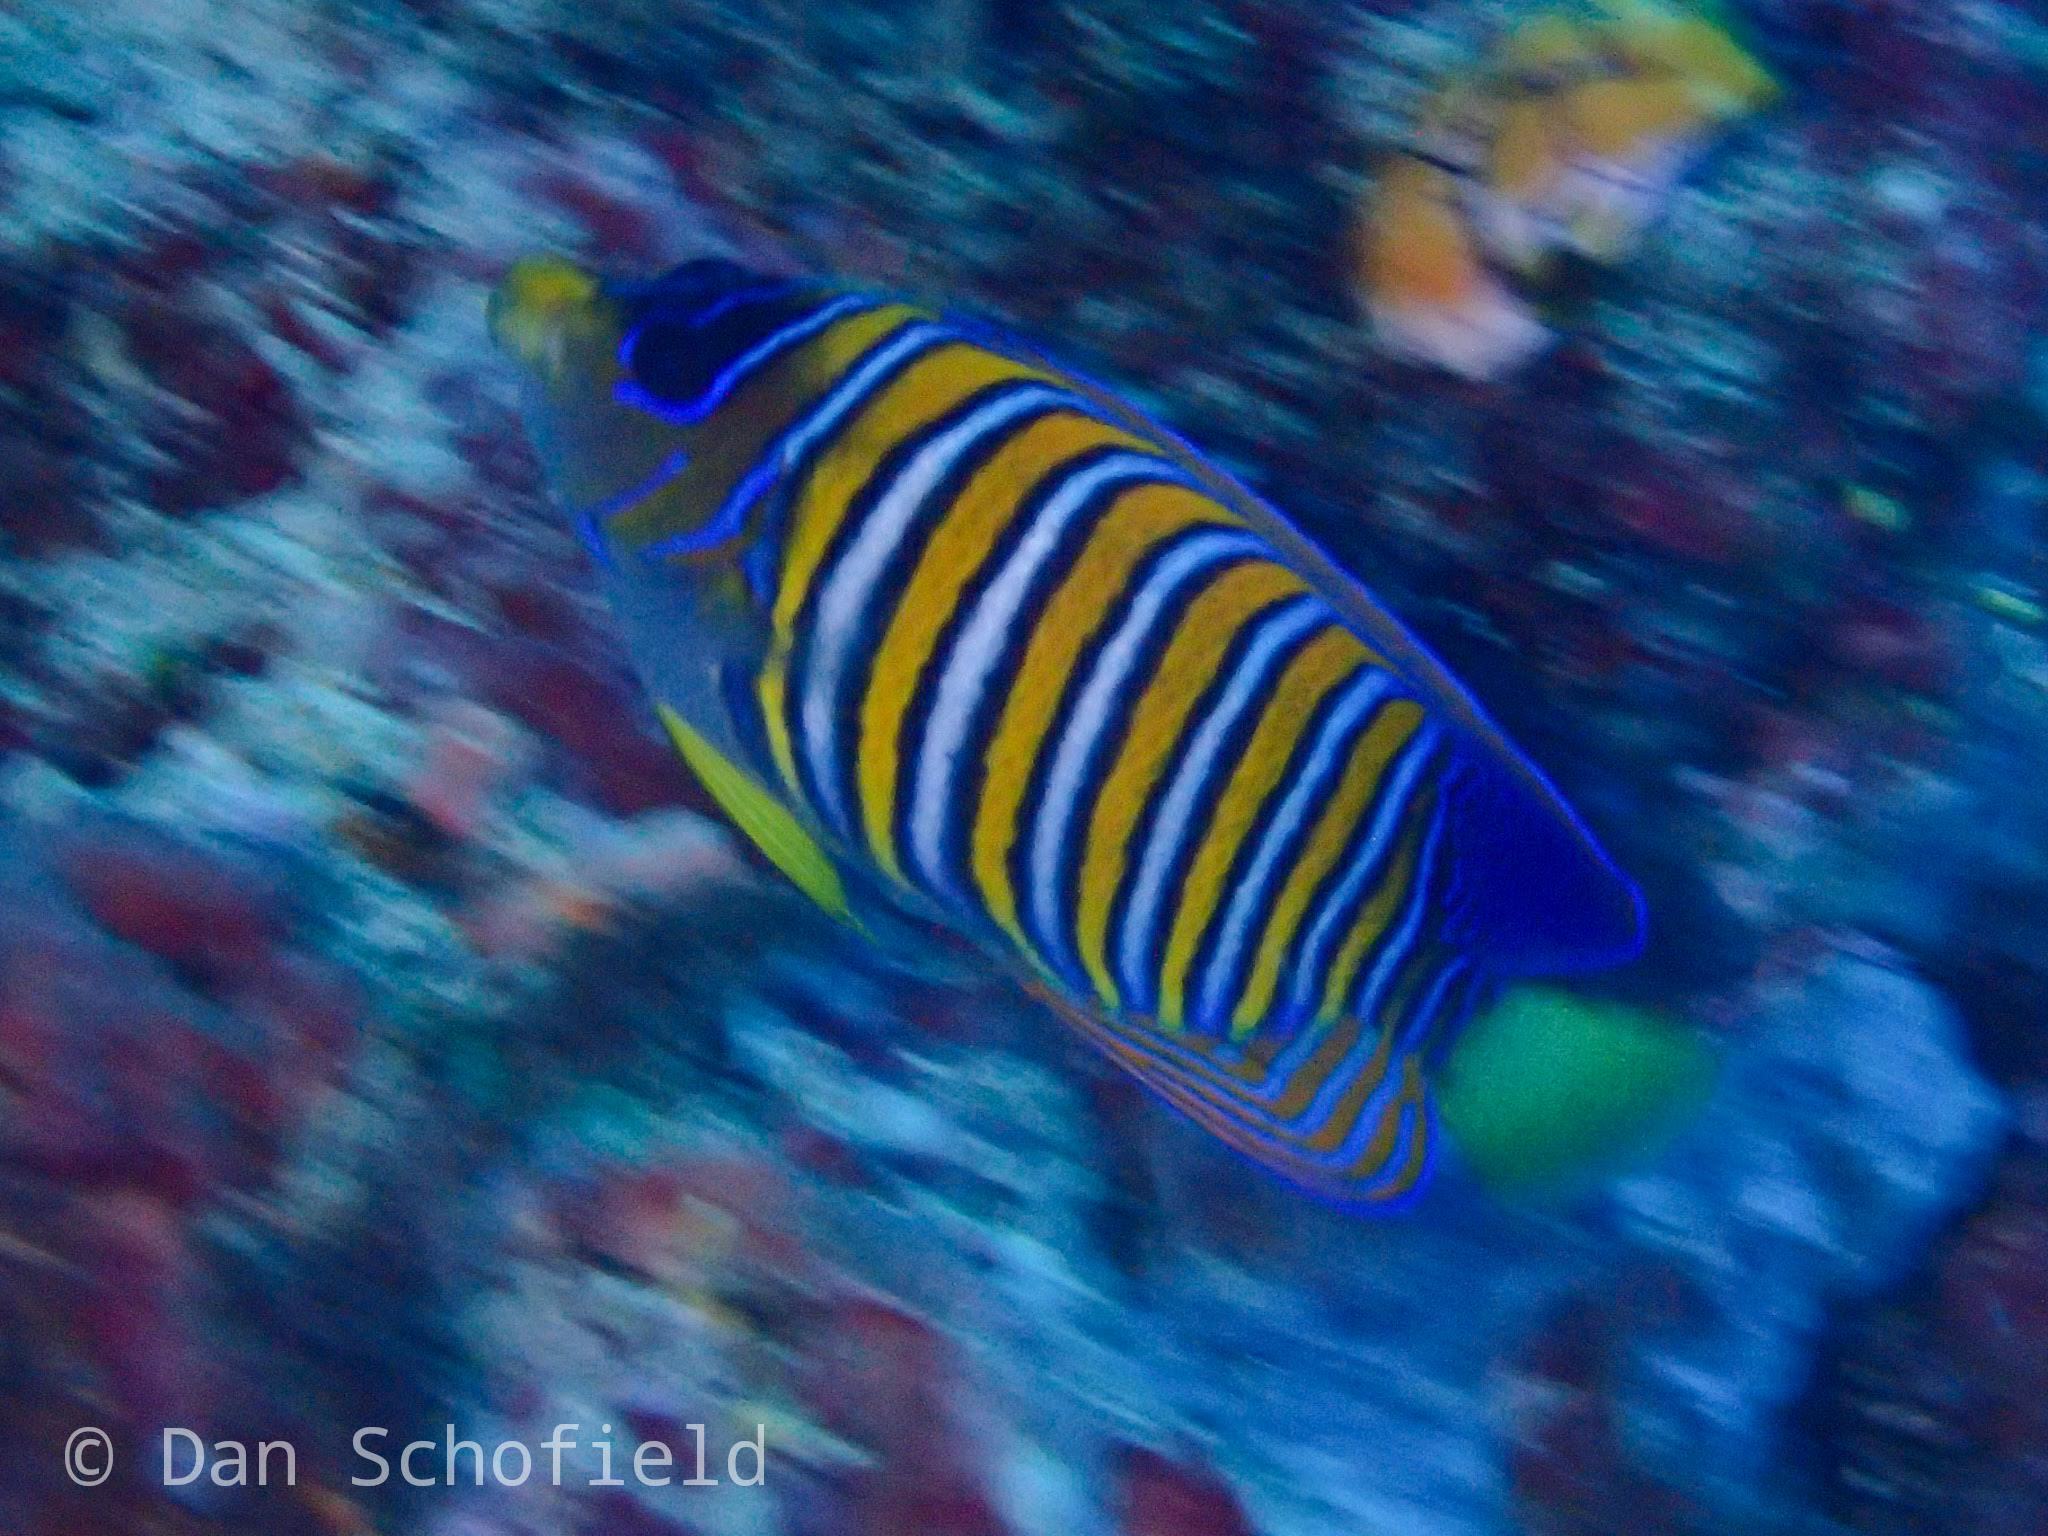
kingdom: Animalia
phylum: Chordata
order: Perciformes
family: Pomacanthidae
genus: Pygoplites
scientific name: Pygoplites diacanthus
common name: Regal angelfish
